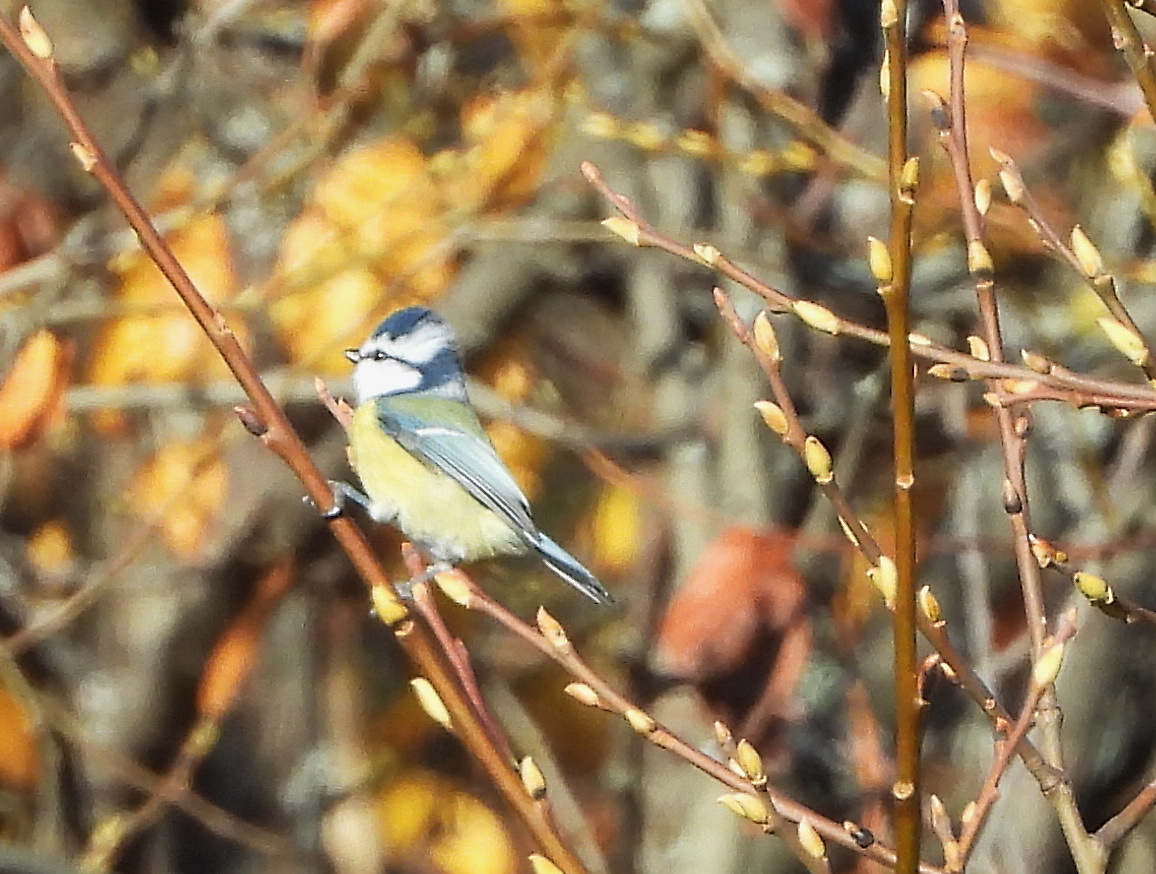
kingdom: Animalia
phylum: Chordata
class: Aves
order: Passeriformes
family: Paridae
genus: Cyanistes
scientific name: Cyanistes caeruleus
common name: Eurasian blue tit
